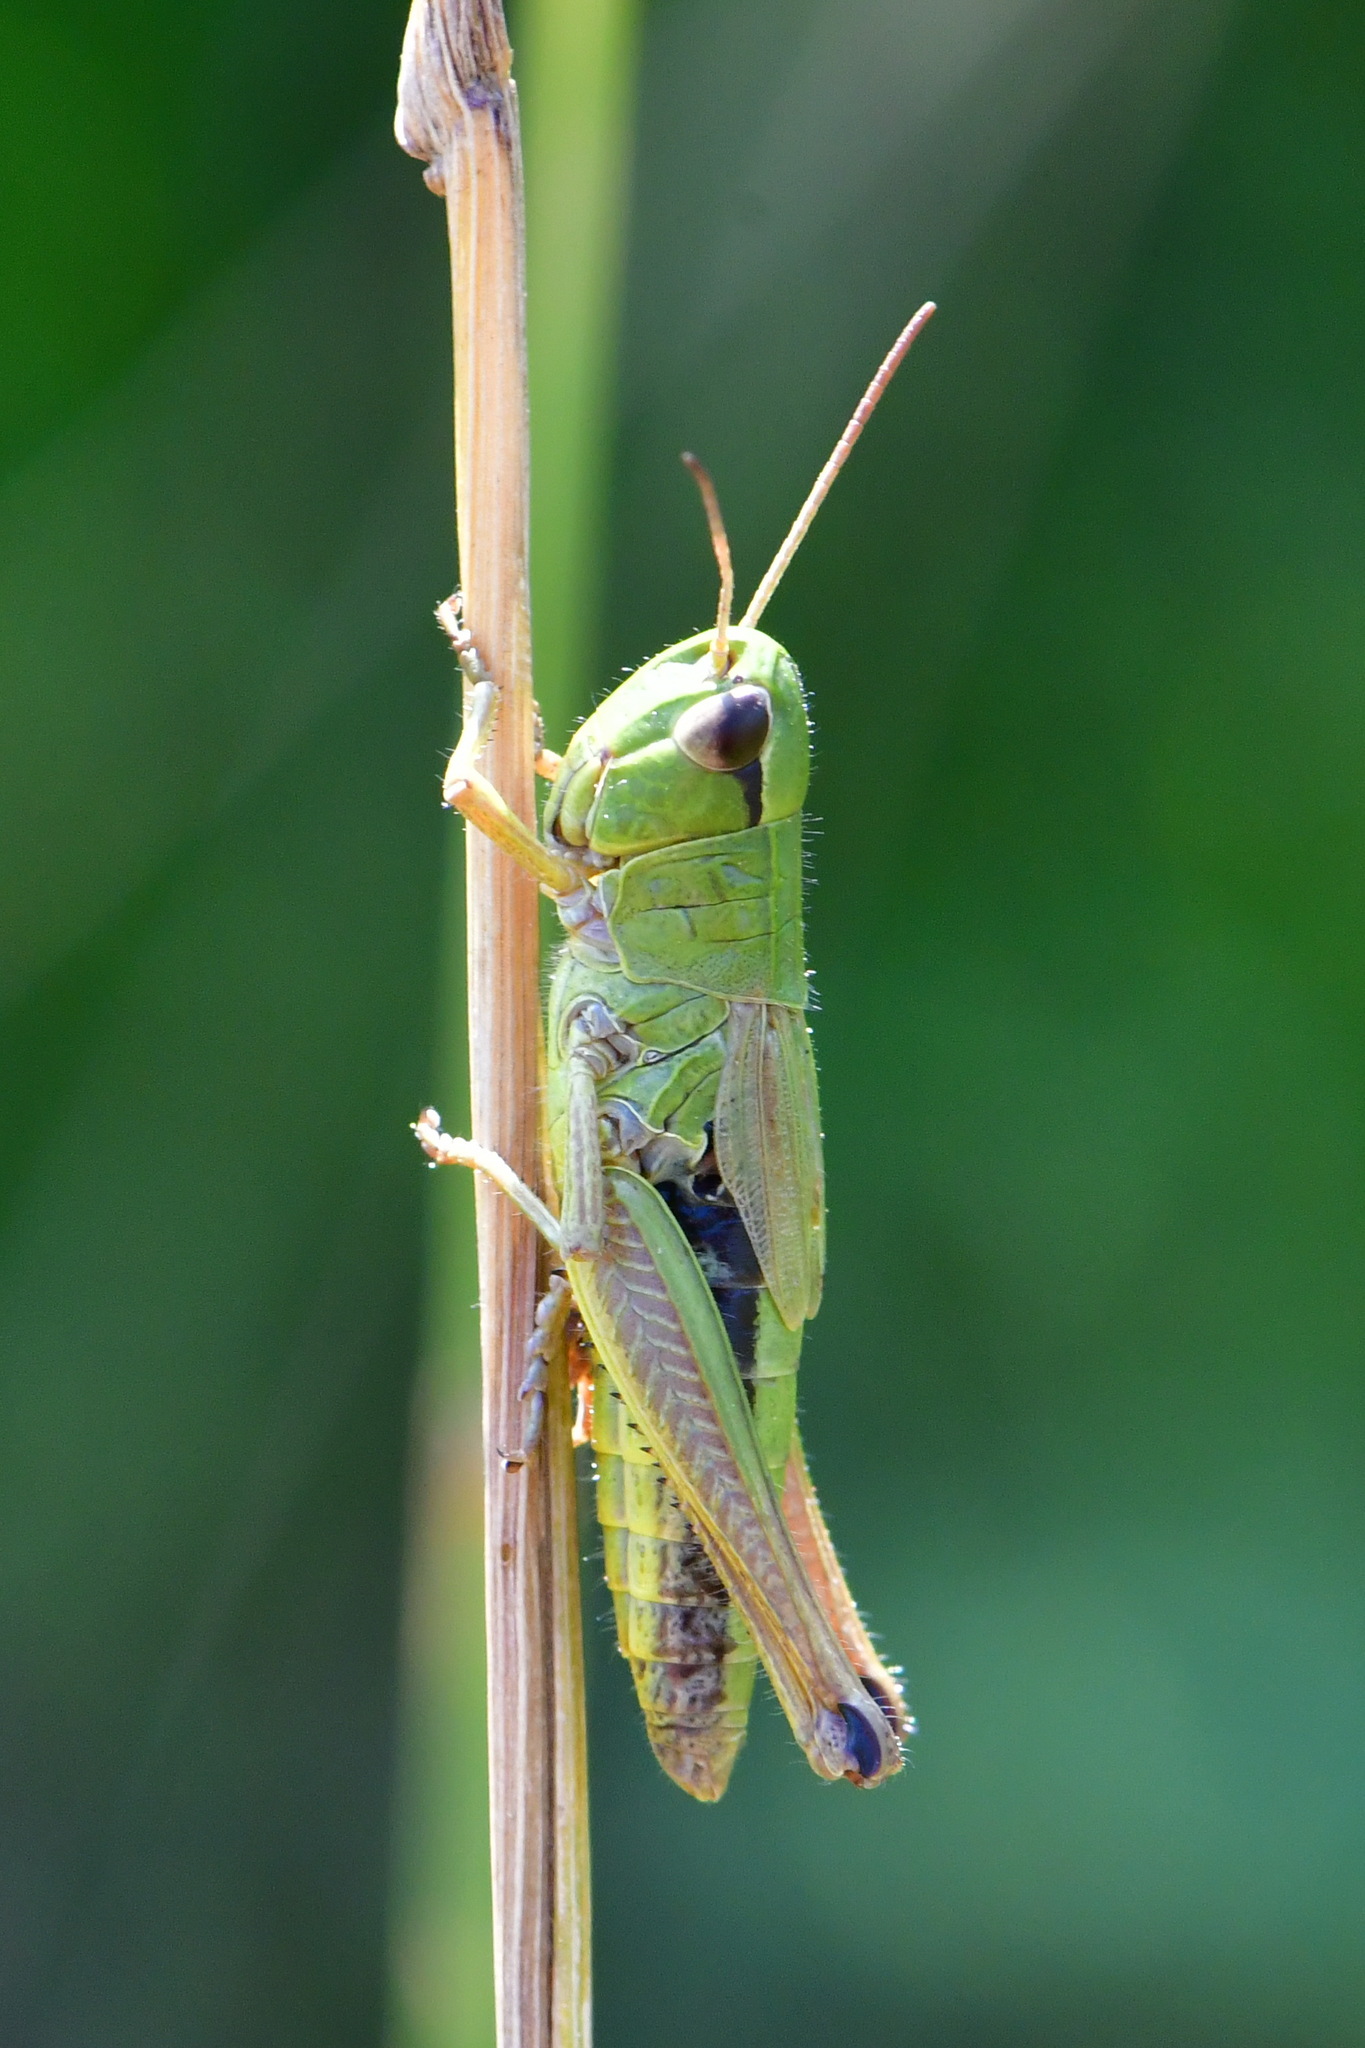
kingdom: Animalia
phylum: Arthropoda
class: Insecta
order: Orthoptera
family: Acrididae
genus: Pseudochorthippus
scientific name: Pseudochorthippus parallelus
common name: Meadow grasshopper
